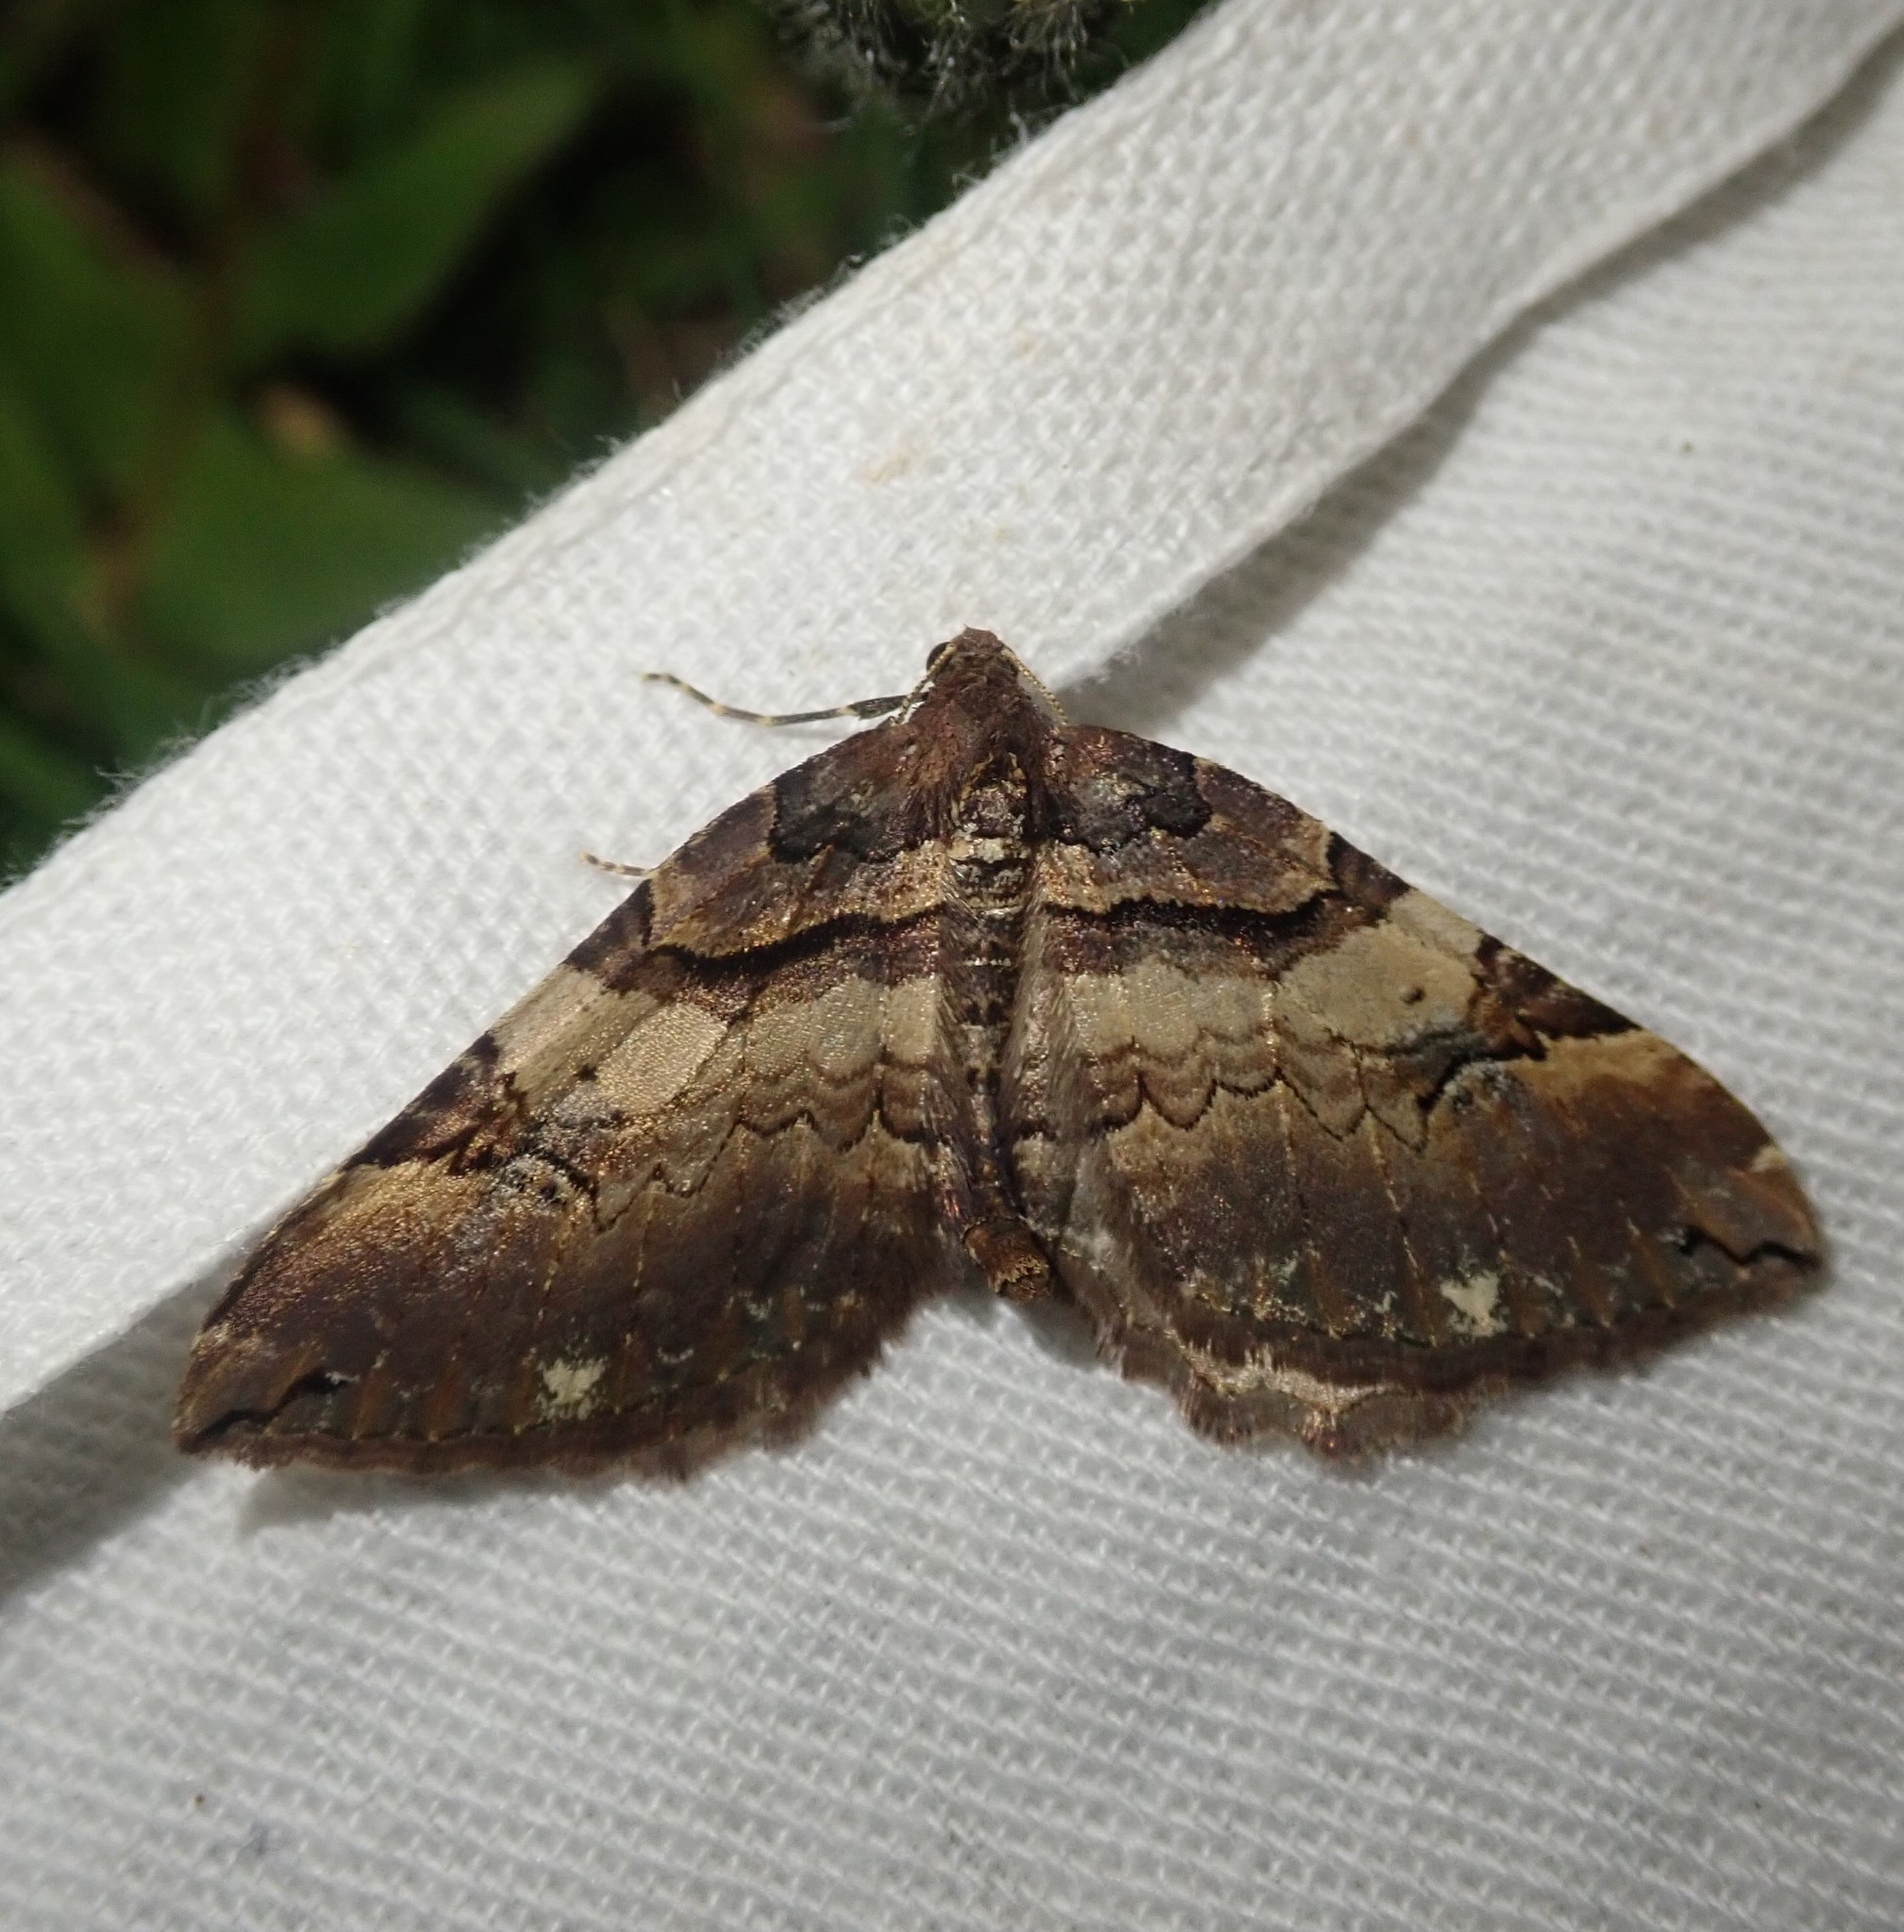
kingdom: Animalia
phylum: Arthropoda
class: Insecta
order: Lepidoptera
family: Geometridae
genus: Anticlea
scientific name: Anticlea badiata
